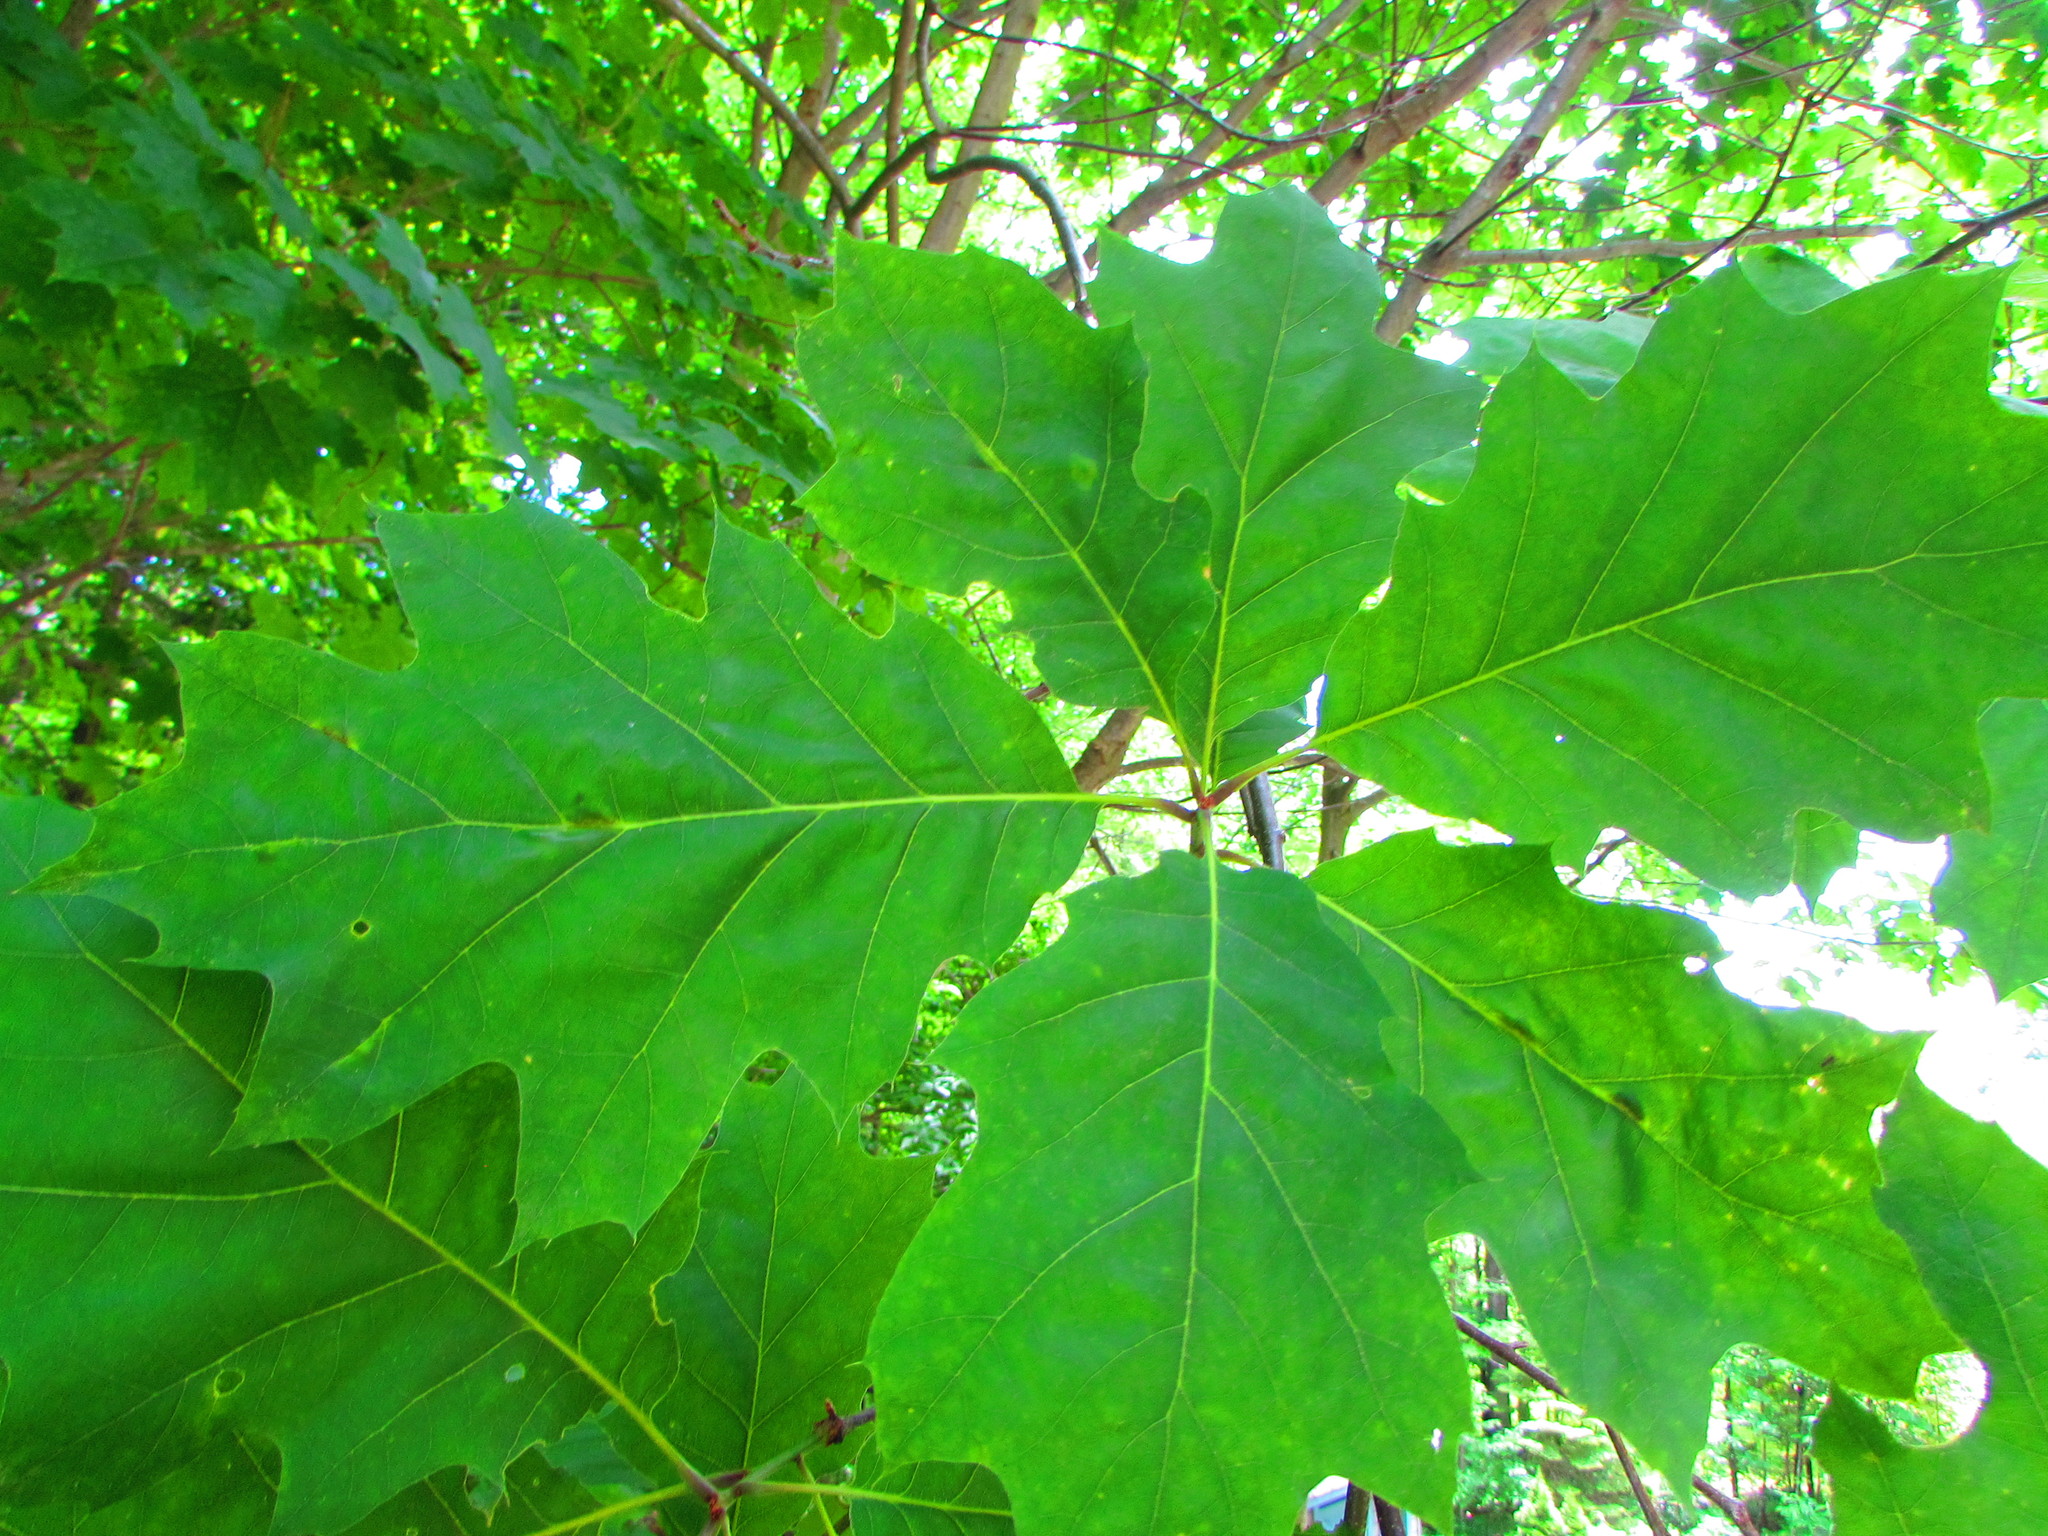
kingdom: Plantae
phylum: Tracheophyta
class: Magnoliopsida
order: Fagales
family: Fagaceae
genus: Quercus
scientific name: Quercus rubra
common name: Red oak
